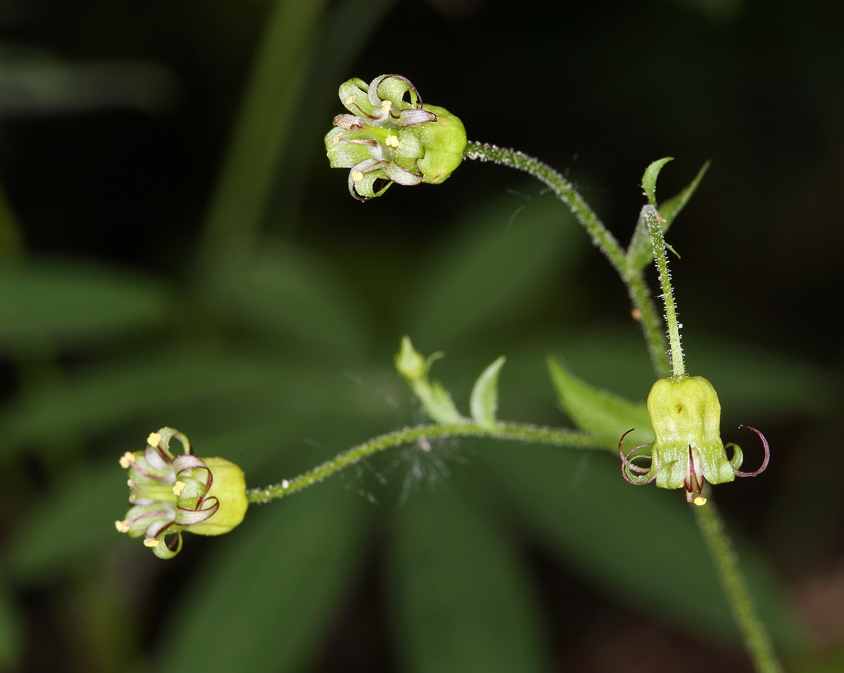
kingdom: Plantae
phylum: Tracheophyta
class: Magnoliopsida
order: Saxifragales
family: Saxifragaceae
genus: Bolandra
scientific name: Bolandra californica
